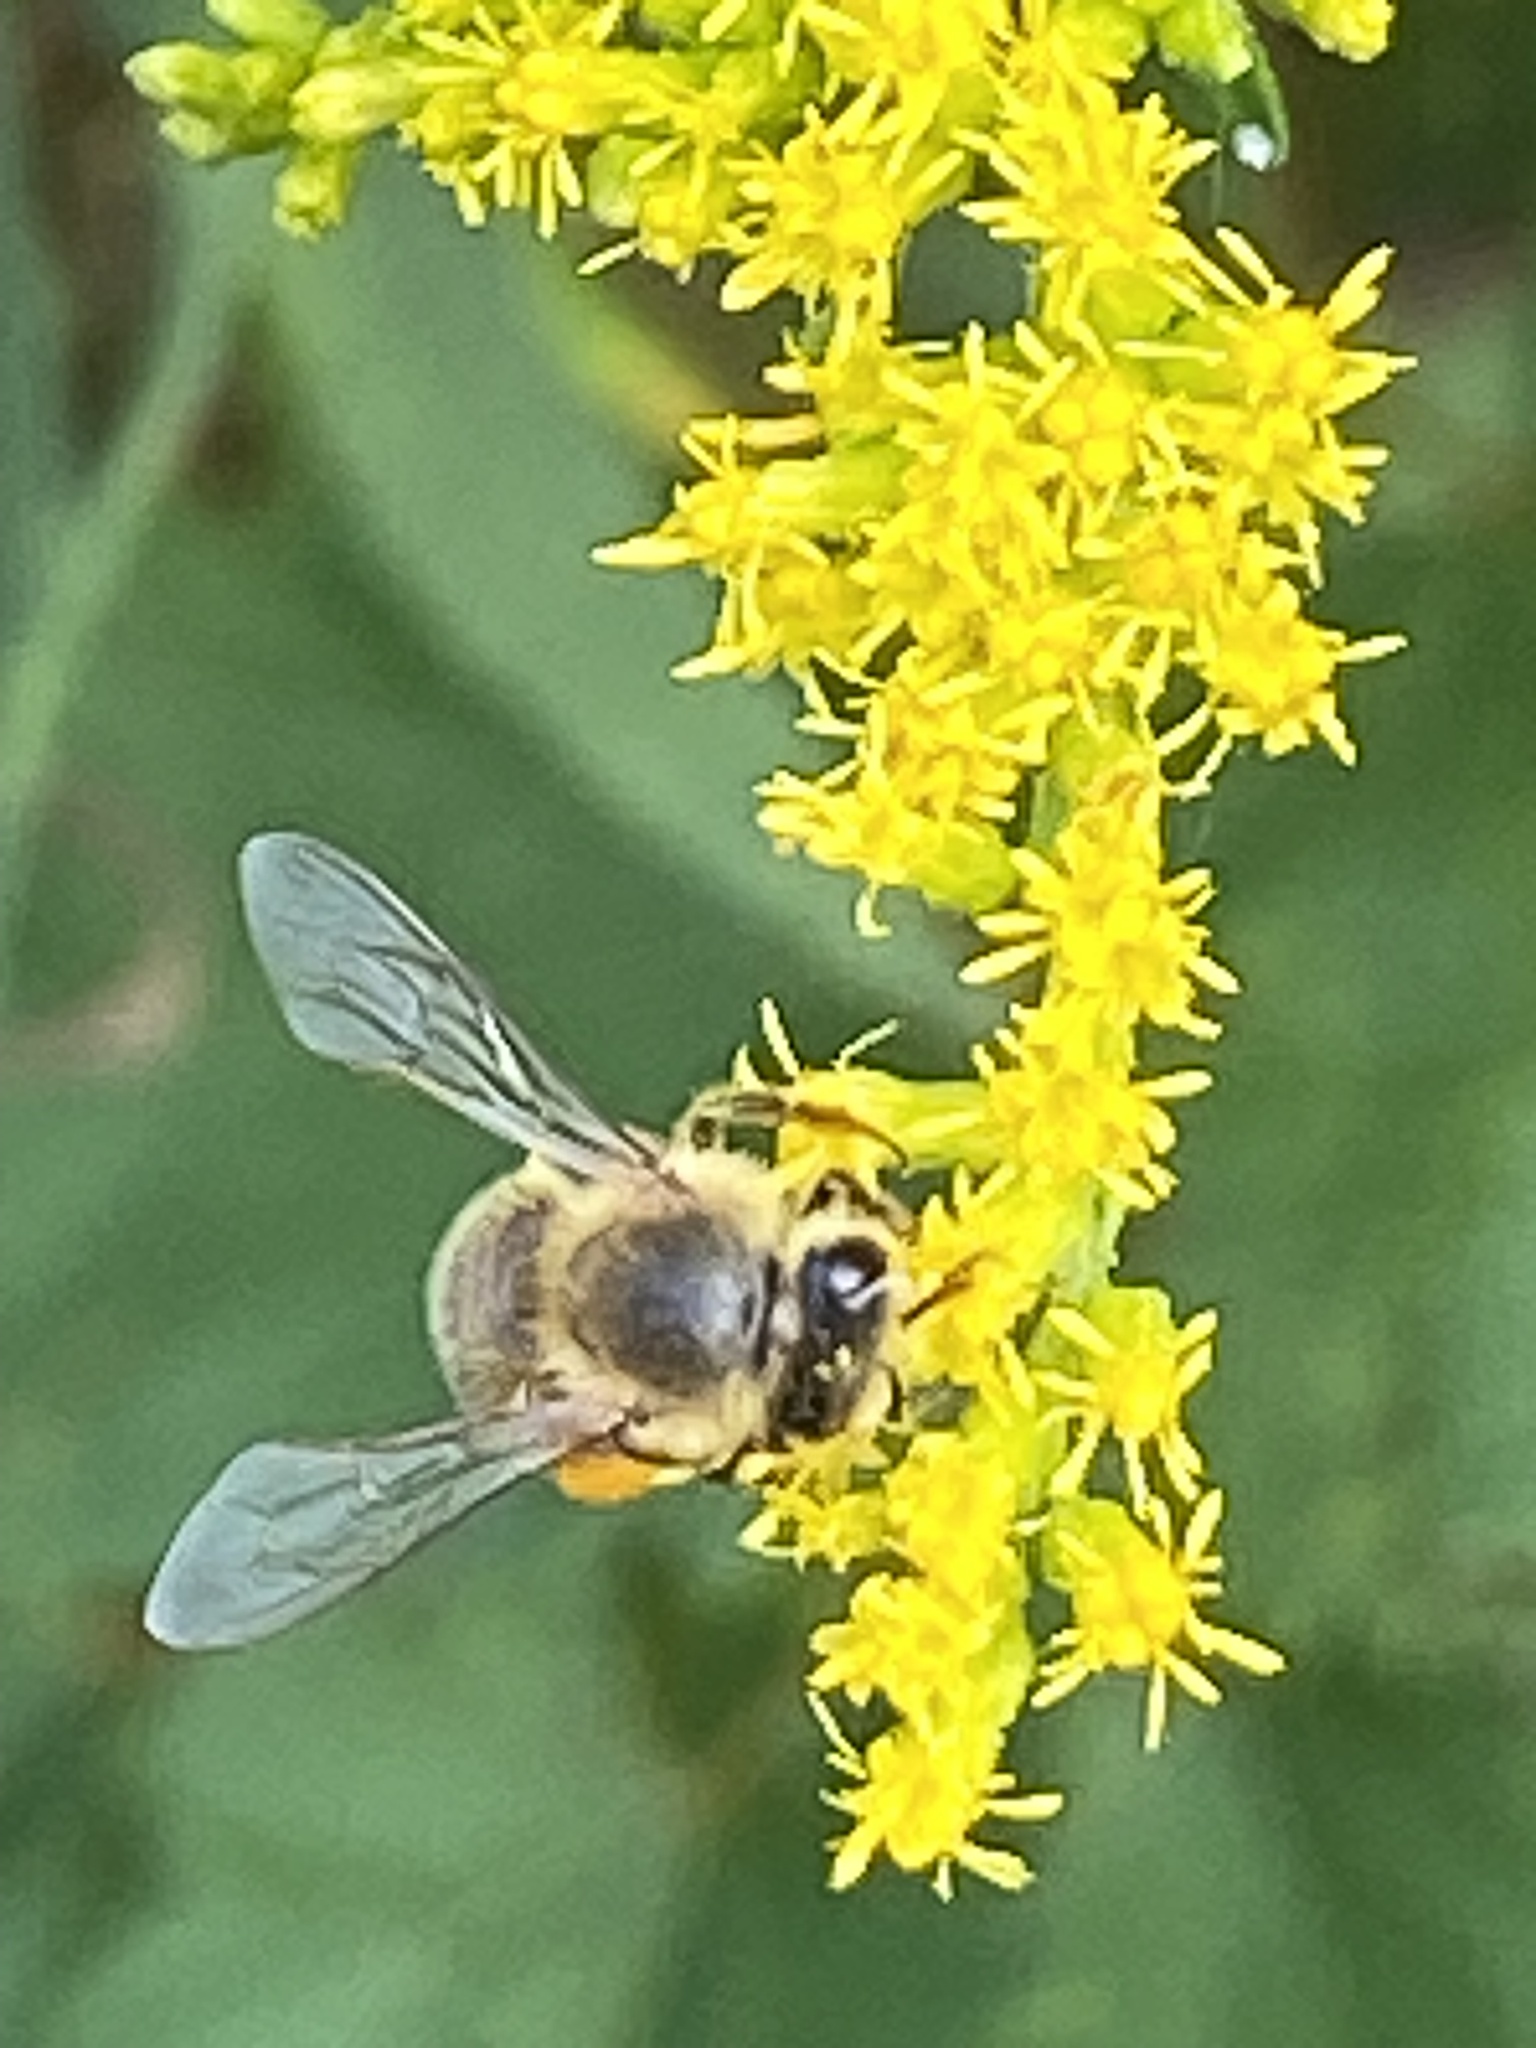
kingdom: Animalia
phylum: Arthropoda
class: Insecta
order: Hymenoptera
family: Apidae
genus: Apis
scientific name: Apis mellifera
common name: Honey bee
